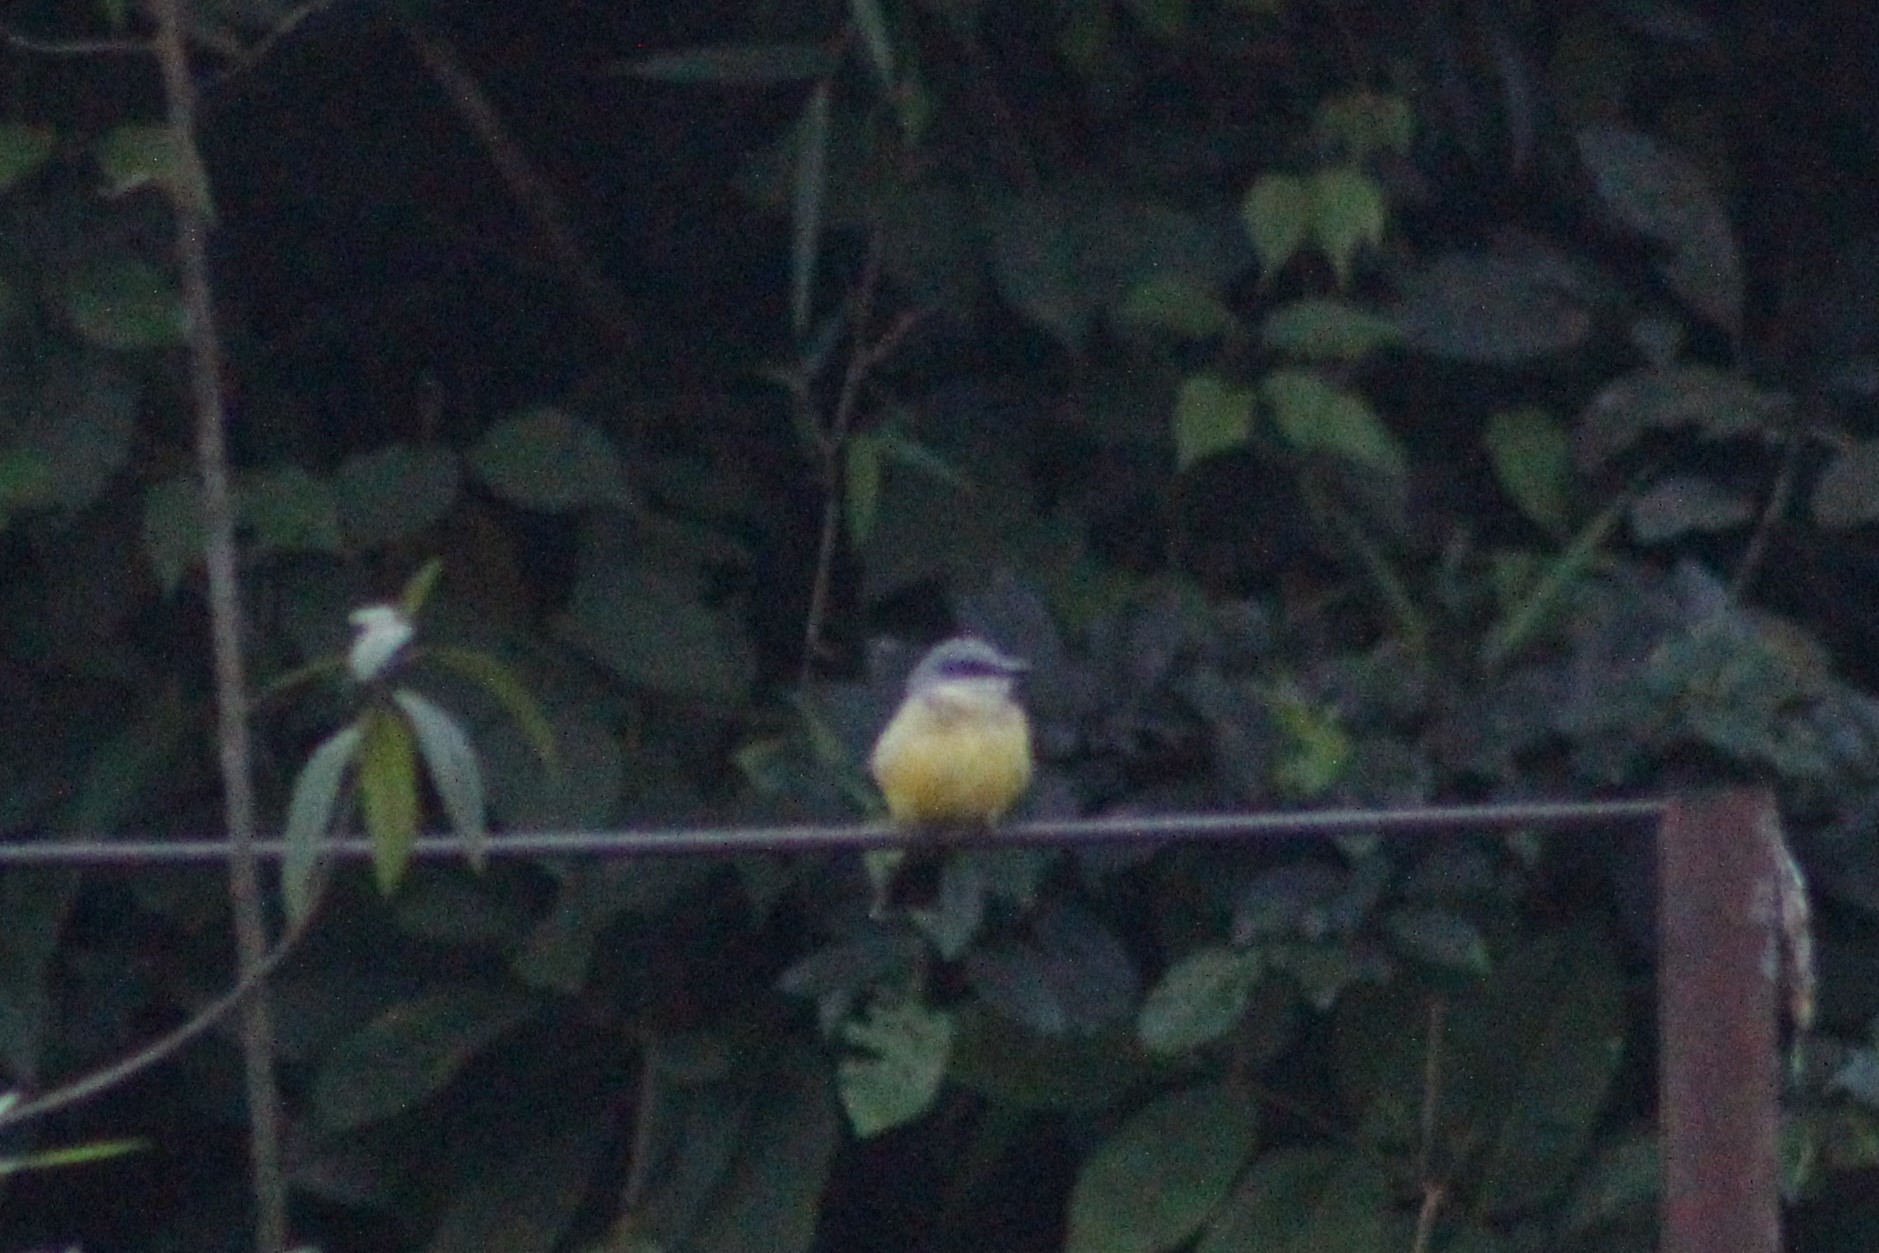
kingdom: Animalia
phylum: Chordata
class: Aves
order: Passeriformes
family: Tyrannidae
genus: Tyrannus
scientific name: Tyrannus melancholicus
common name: Tropical kingbird
